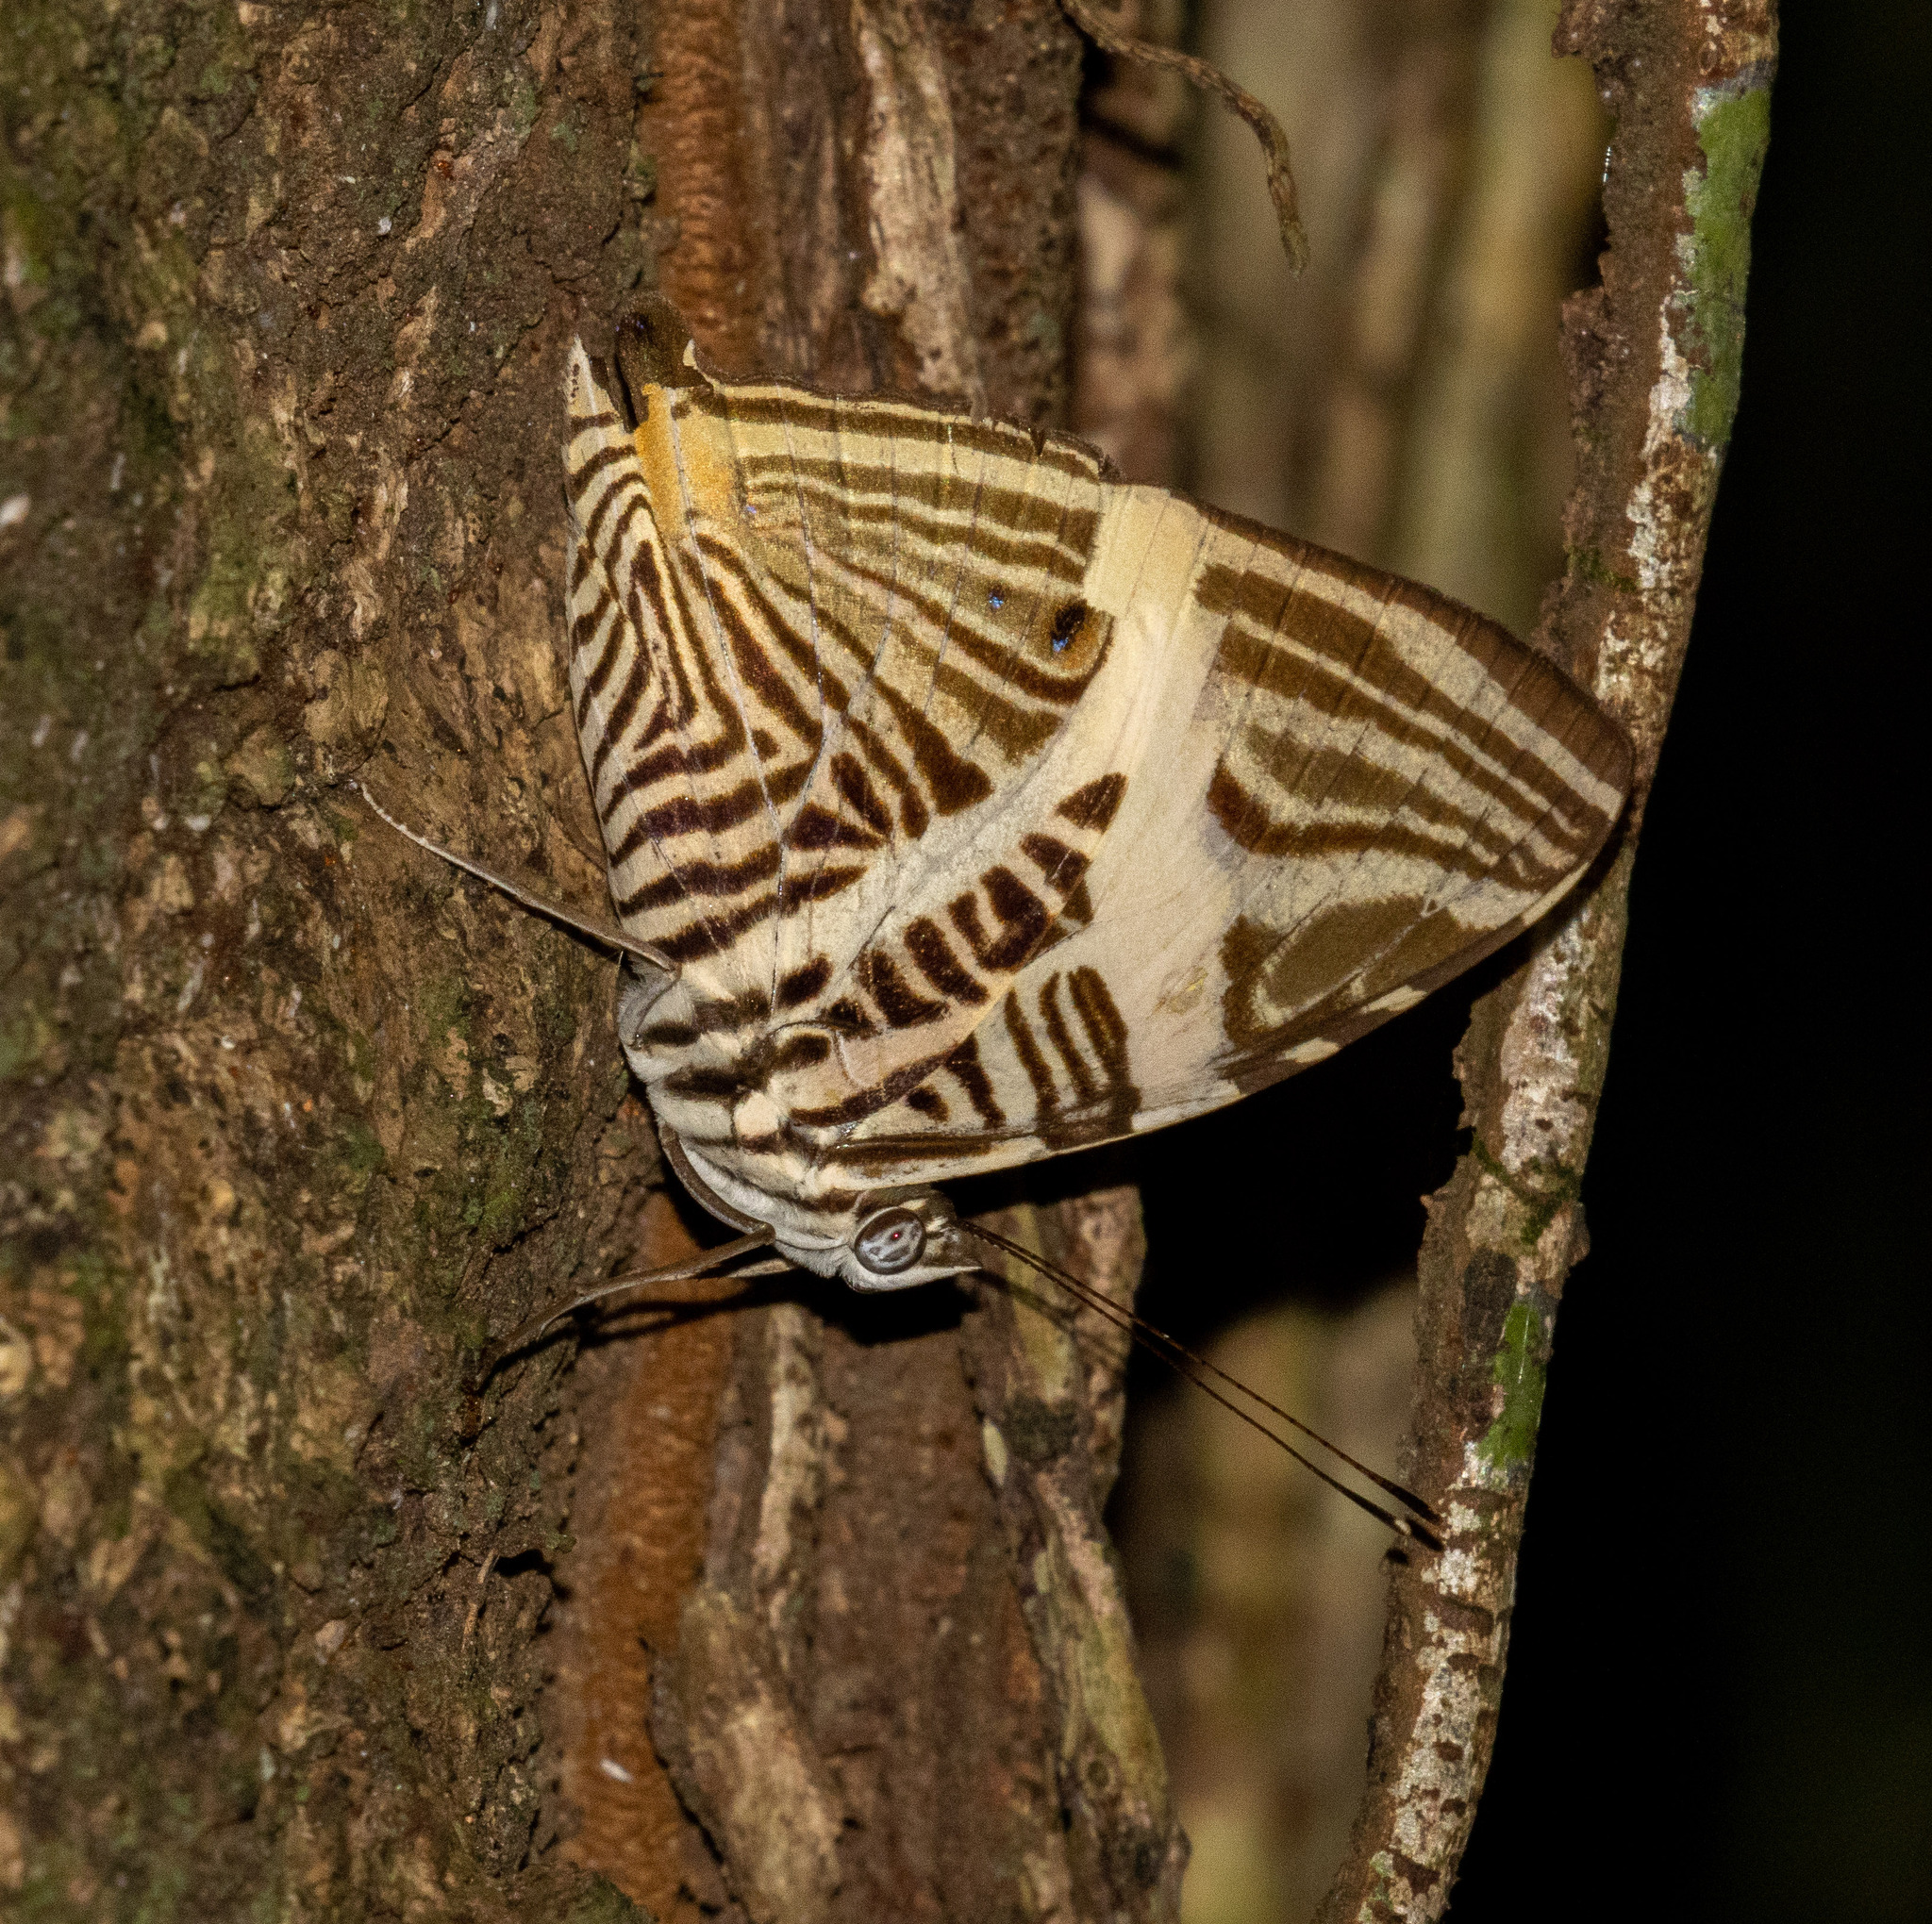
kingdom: Animalia
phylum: Arthropoda
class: Insecta
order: Lepidoptera
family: Nymphalidae
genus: Colobura
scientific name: Colobura dirce
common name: Dirce beauty
